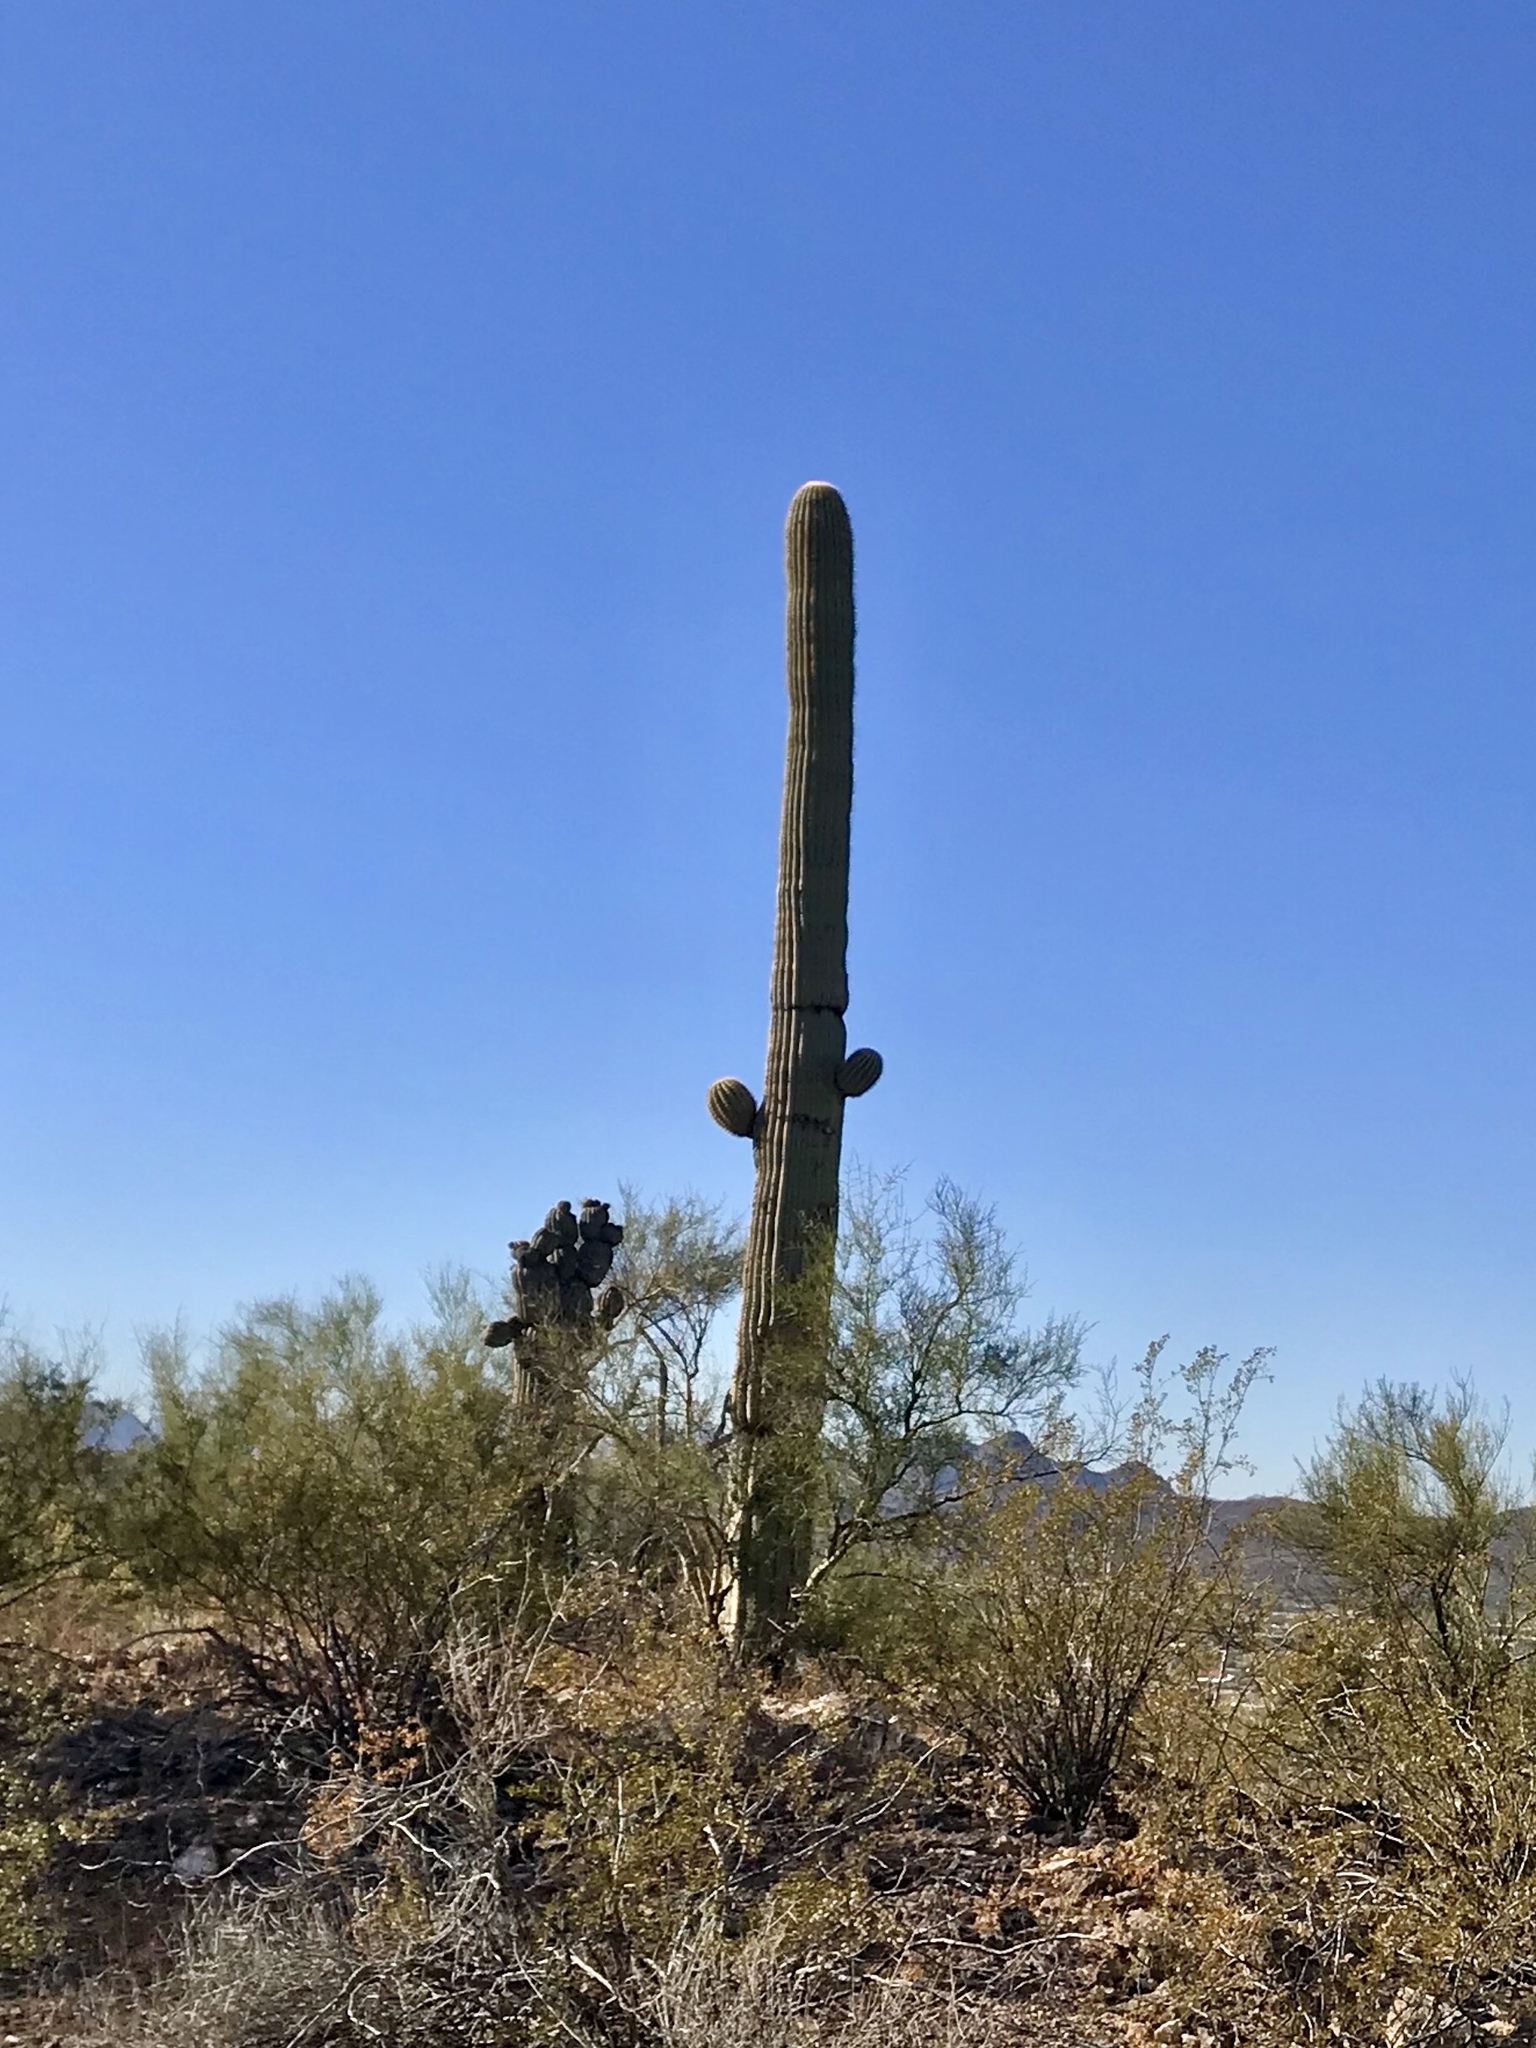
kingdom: Plantae
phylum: Tracheophyta
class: Magnoliopsida
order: Caryophyllales
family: Cactaceae
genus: Carnegiea
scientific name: Carnegiea gigantea
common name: Saguaro
